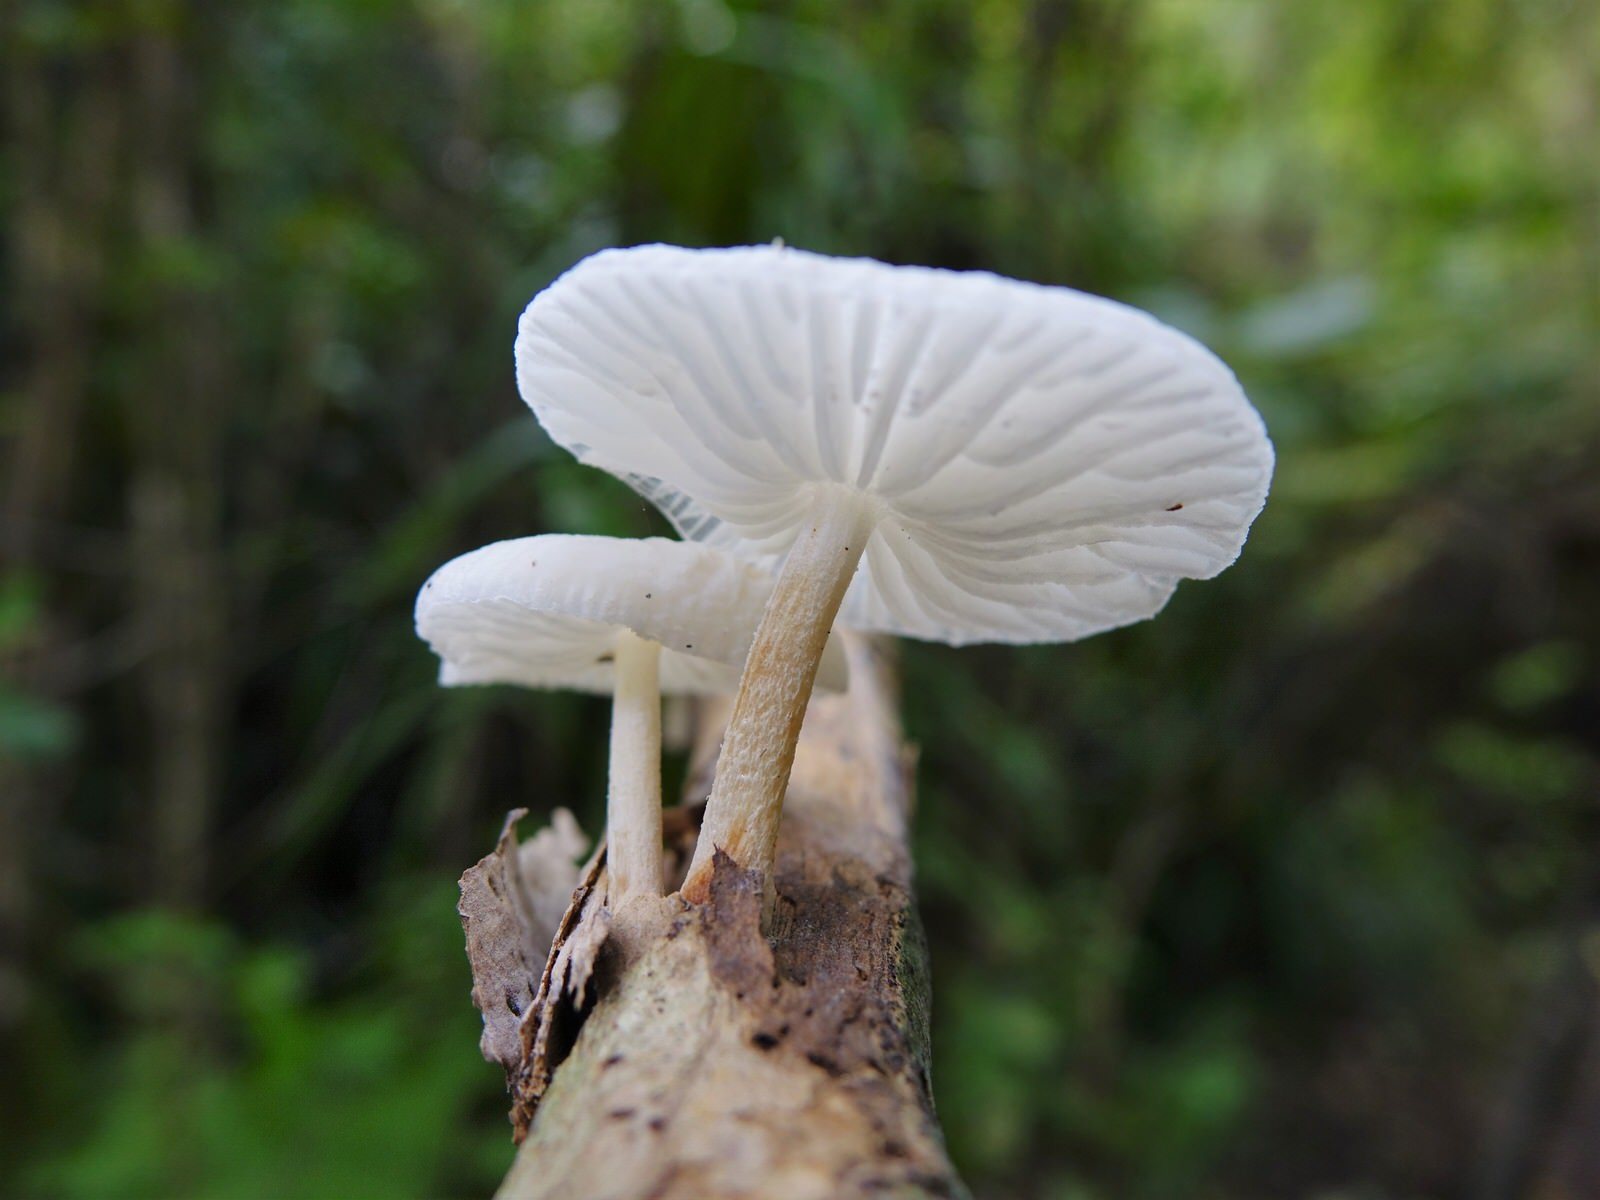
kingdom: Fungi
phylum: Basidiomycota
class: Agaricomycetes
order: Agaricales
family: Physalacriaceae
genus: Oudemansiella
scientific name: Oudemansiella australis
